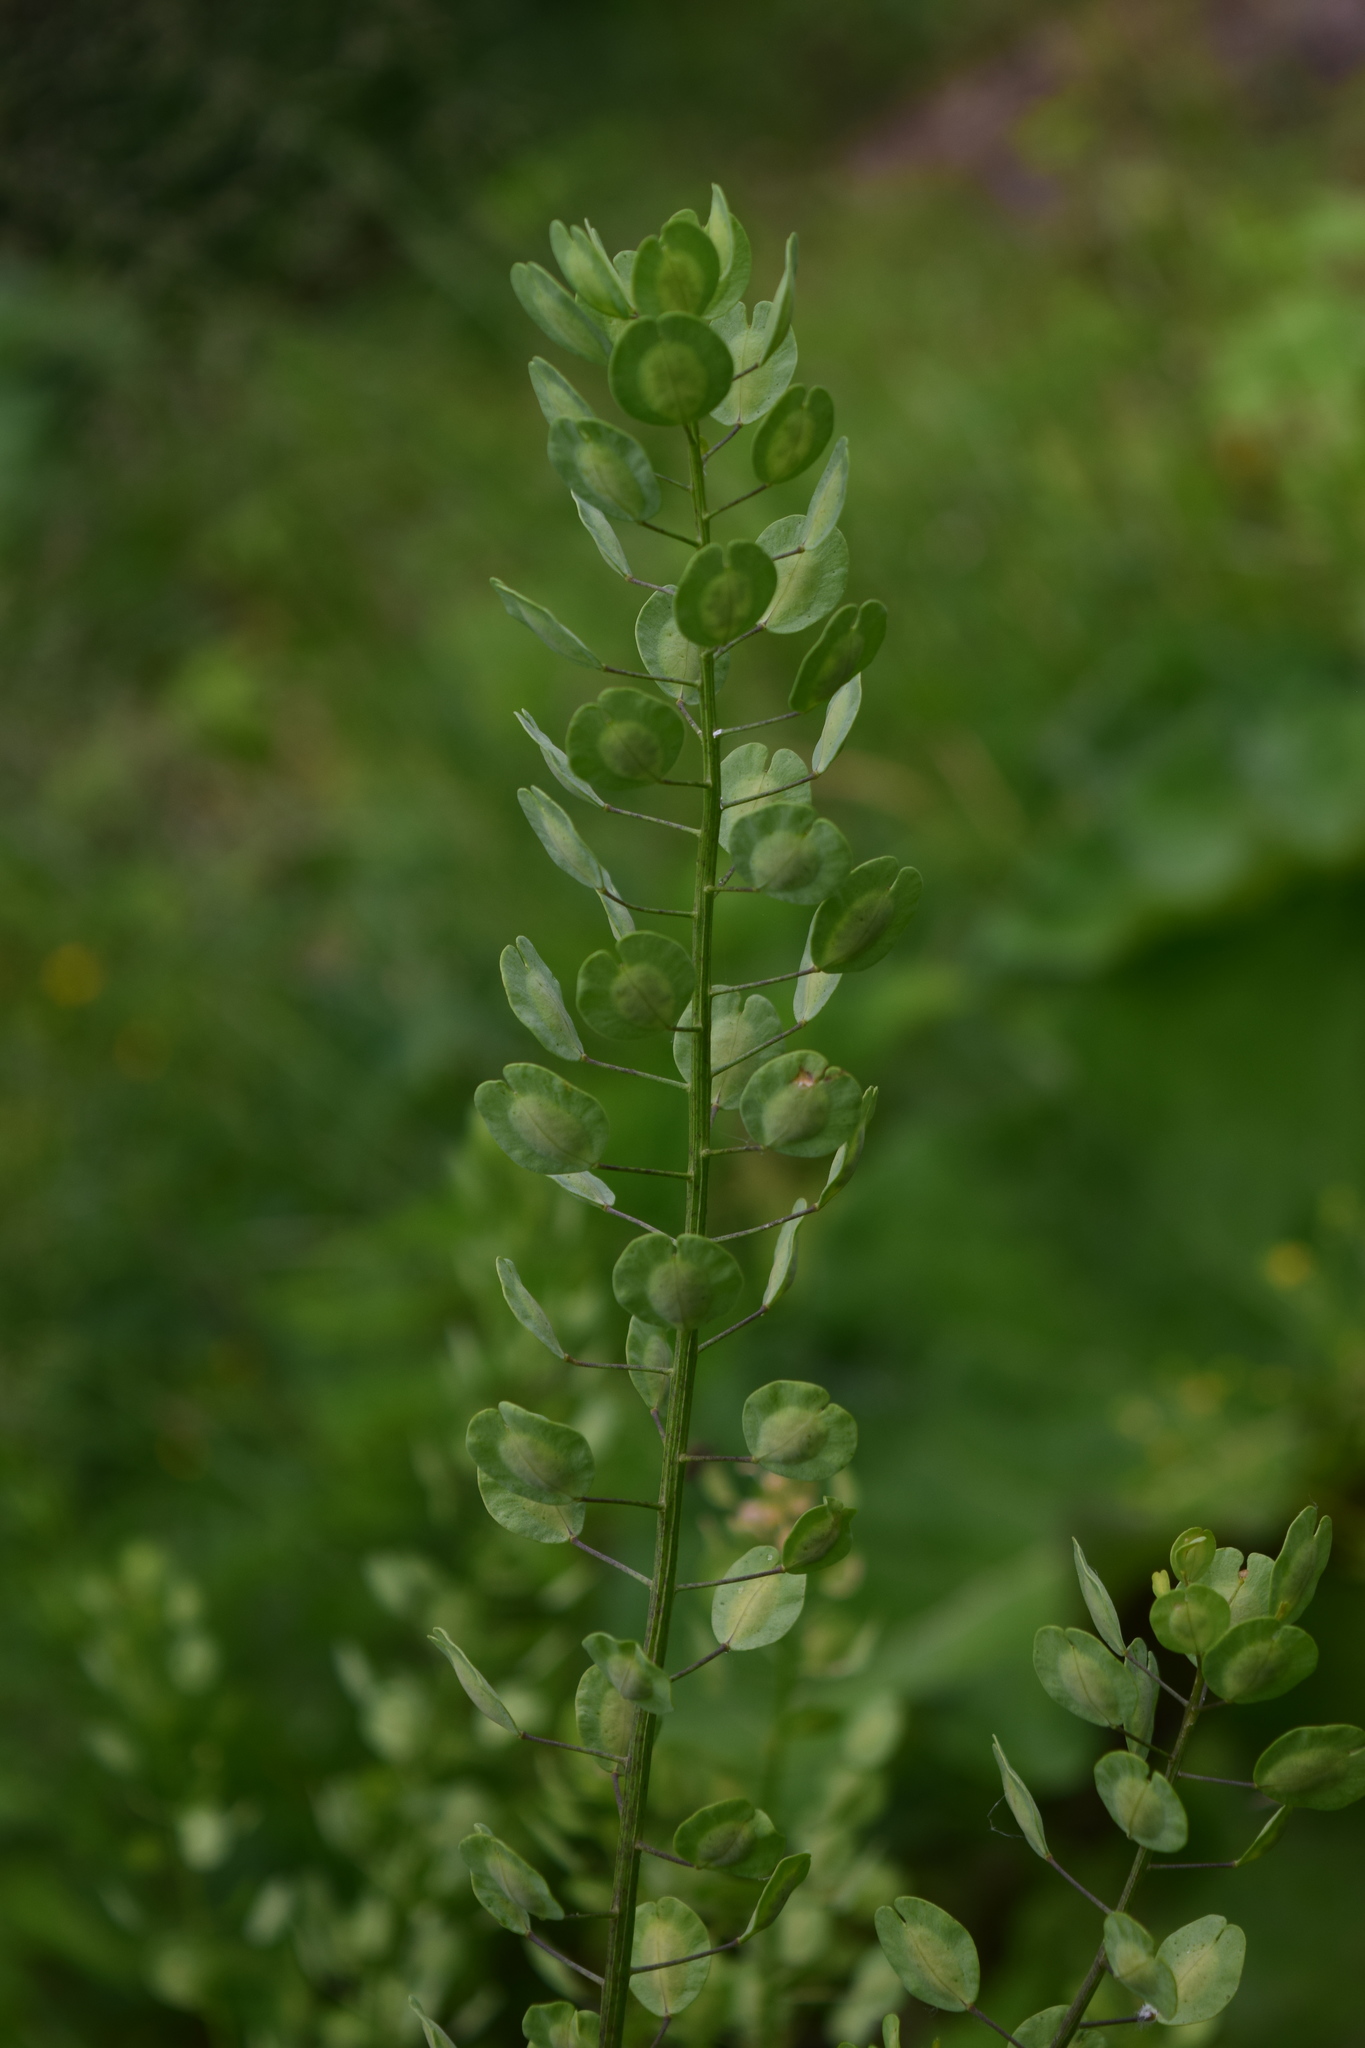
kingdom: Plantae
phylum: Tracheophyta
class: Magnoliopsida
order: Brassicales
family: Brassicaceae
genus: Thlaspi
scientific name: Thlaspi arvense
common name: Field pennycress
